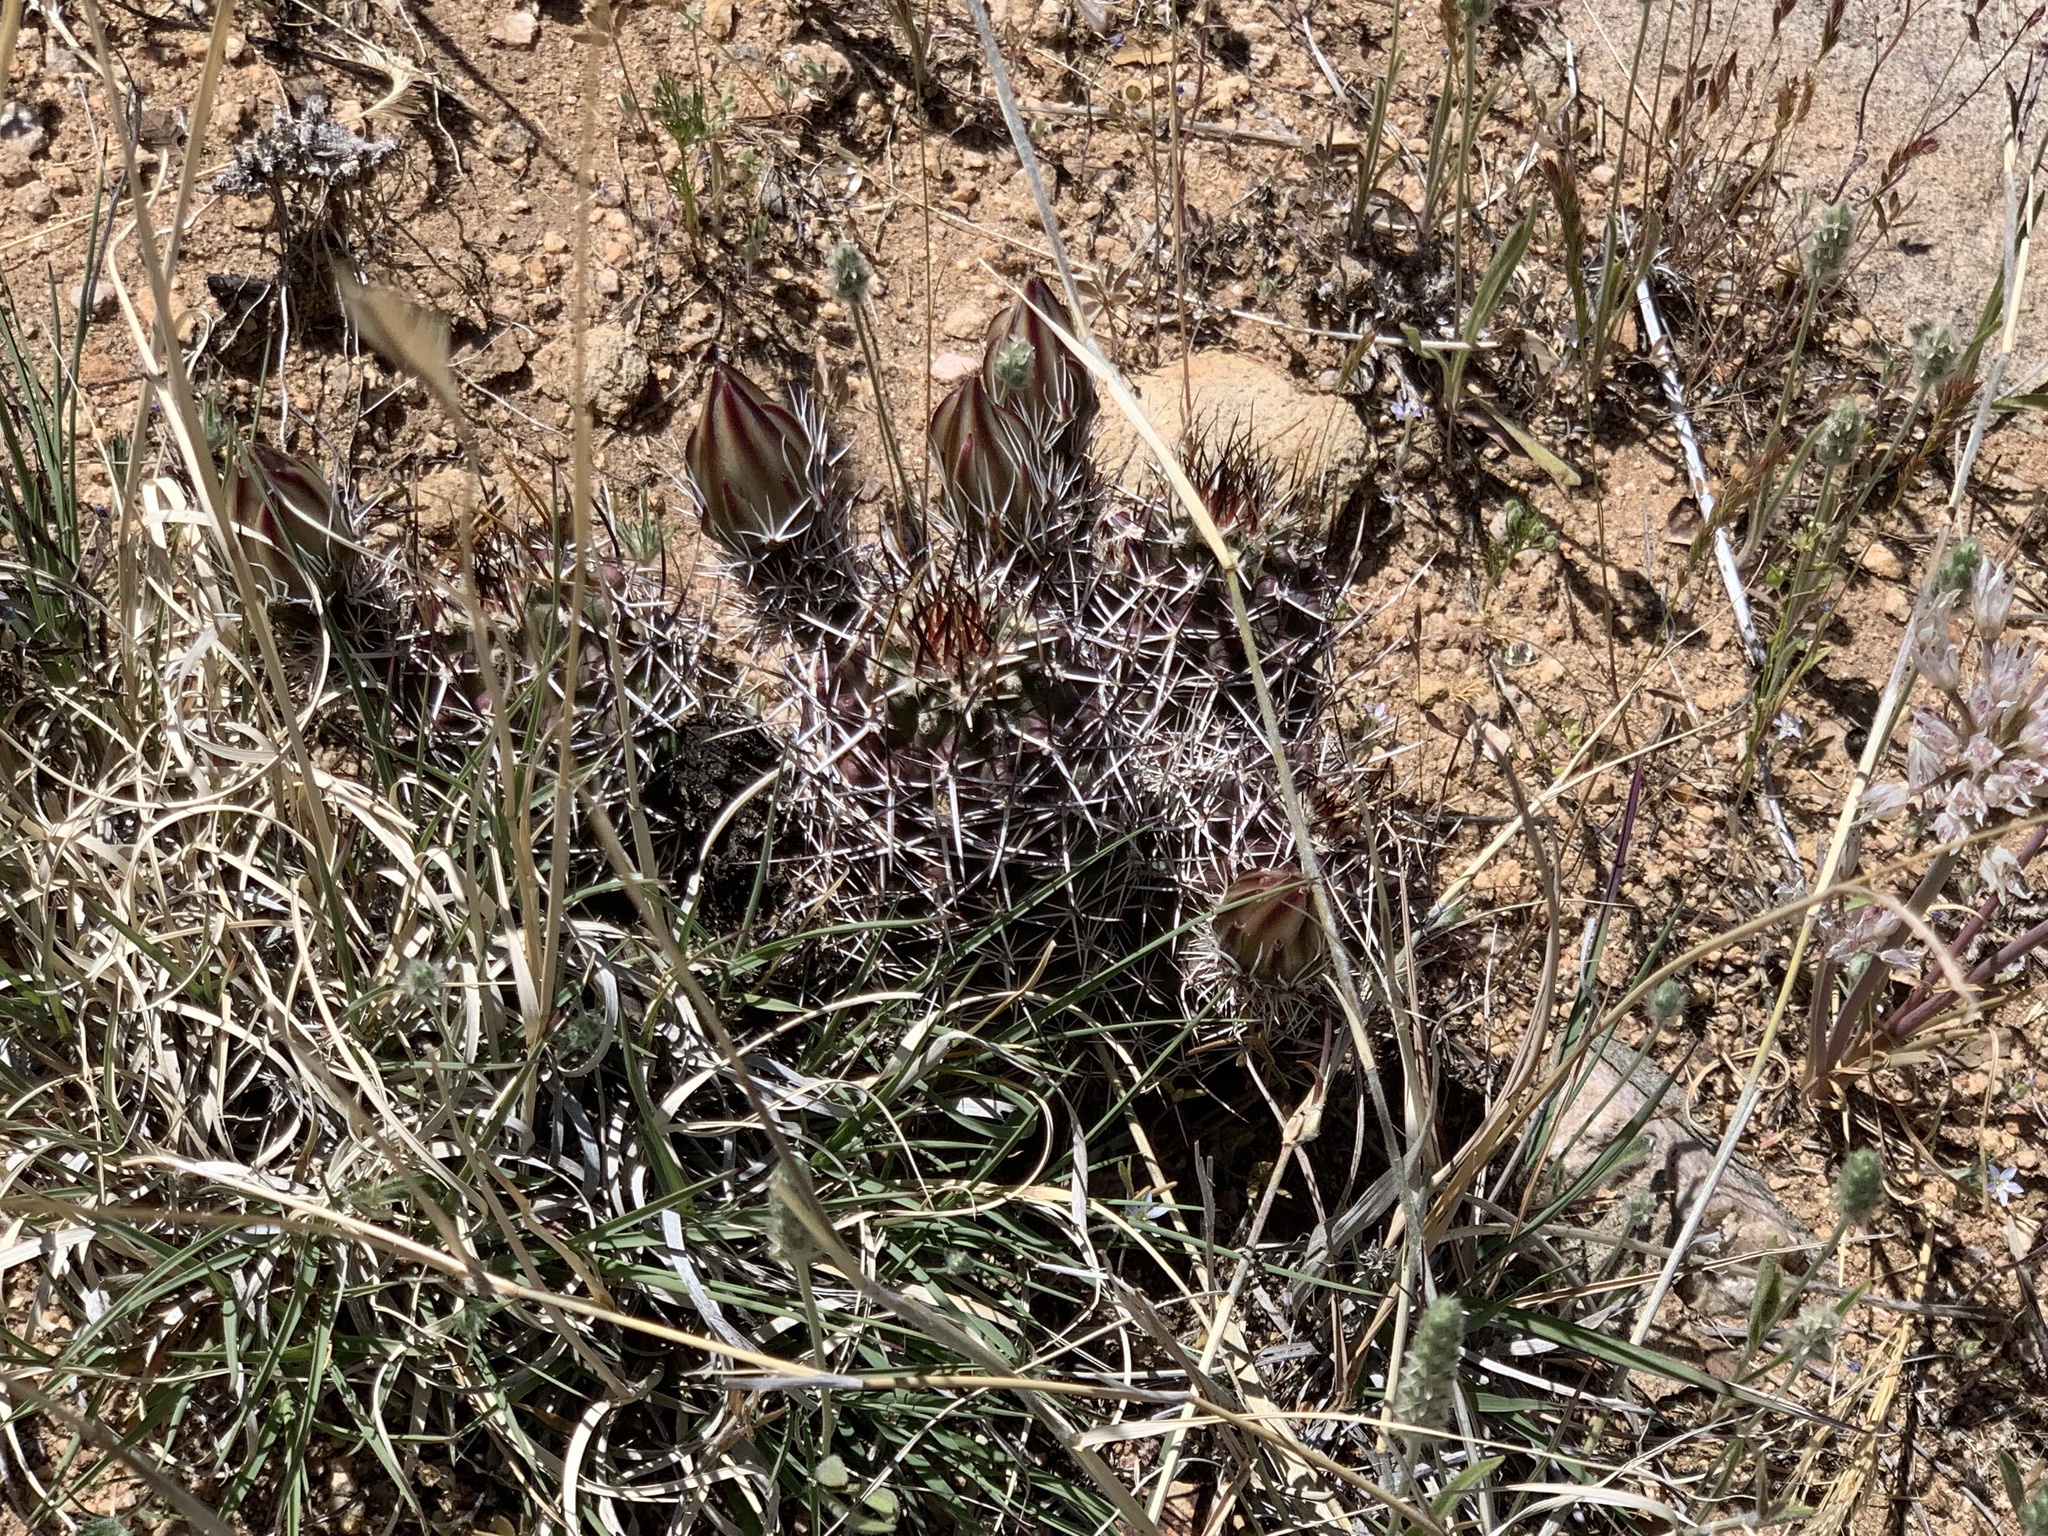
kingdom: Plantae
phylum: Tracheophyta
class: Magnoliopsida
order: Caryophyllales
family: Cactaceae
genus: Echinocereus
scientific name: Echinocereus fendleri
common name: Fendler's hedgehog cactus
